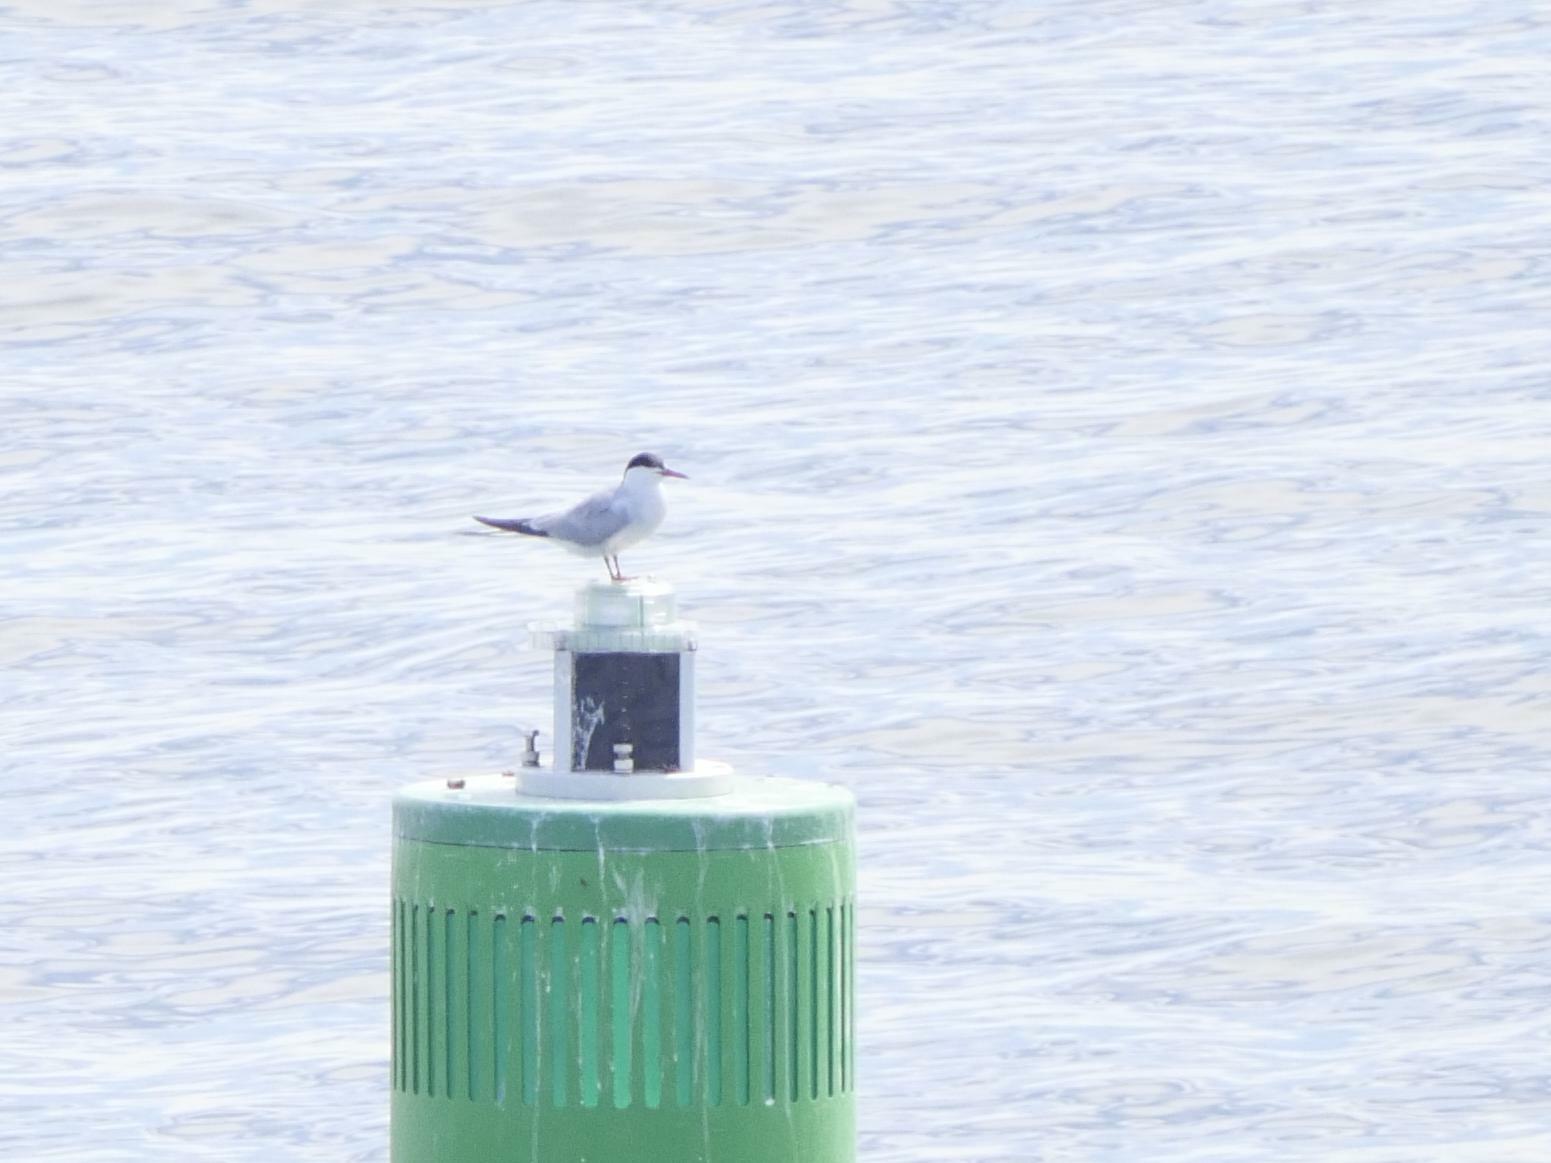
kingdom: Animalia
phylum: Chordata
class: Aves
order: Charadriiformes
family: Laridae
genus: Sterna
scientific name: Sterna hirundo
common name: Common tern
